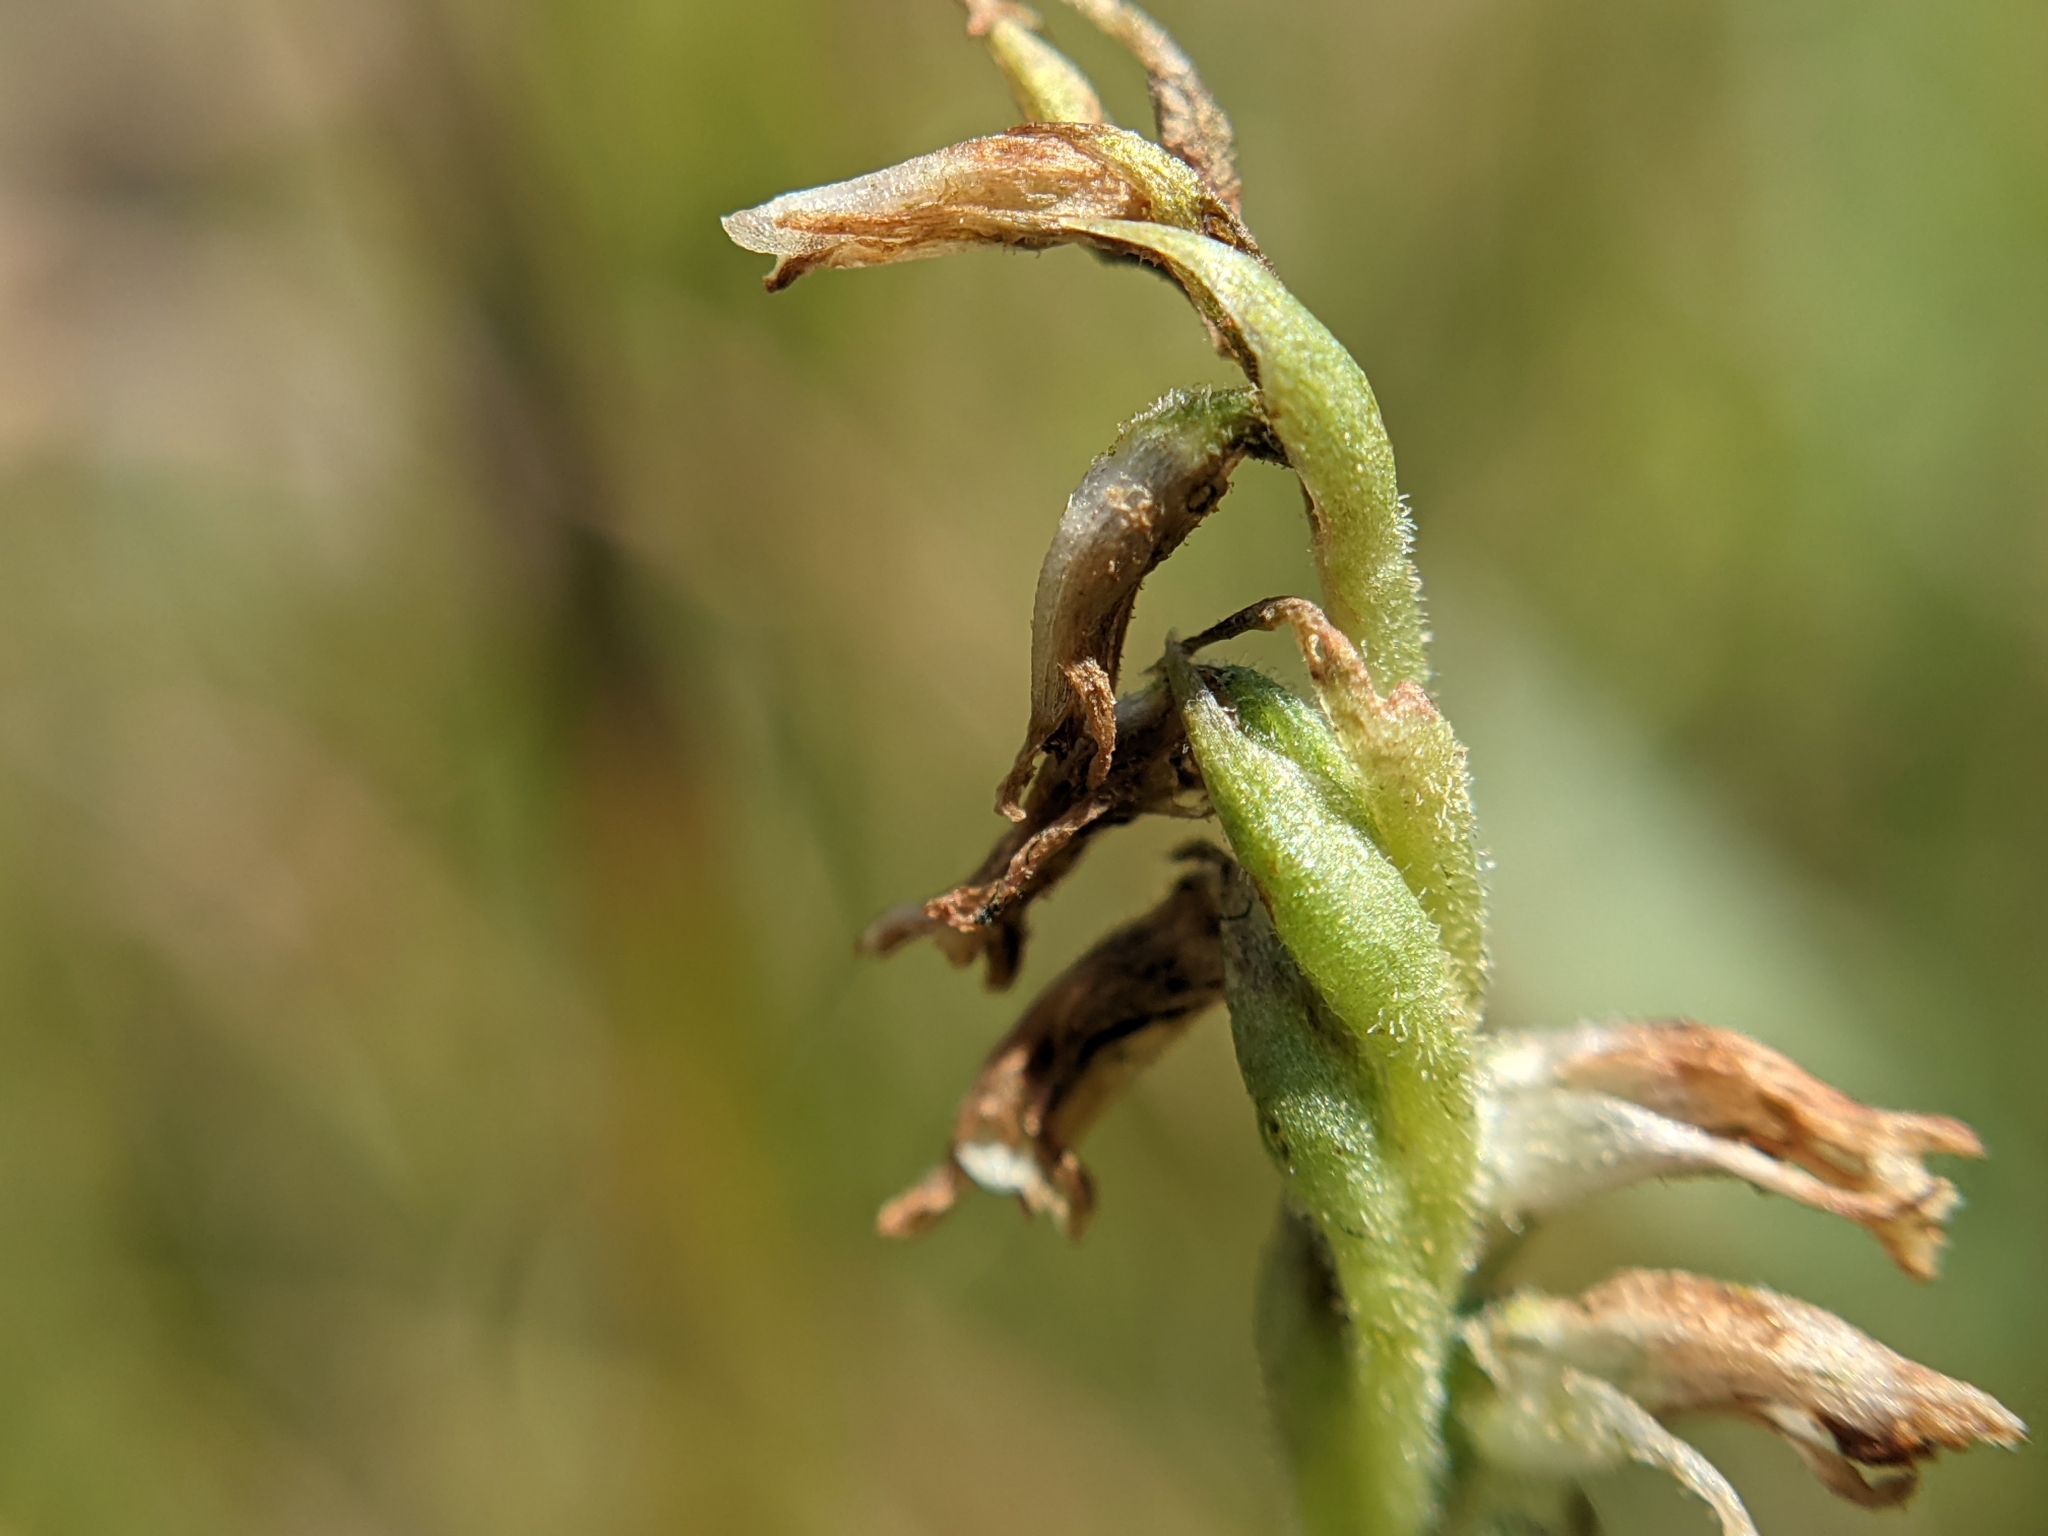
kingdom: Plantae
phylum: Tracheophyta
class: Liliopsida
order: Asparagales
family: Orchidaceae
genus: Spiranthes
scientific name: Spiranthes intermedia
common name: Intermediate ladies'-tresses
